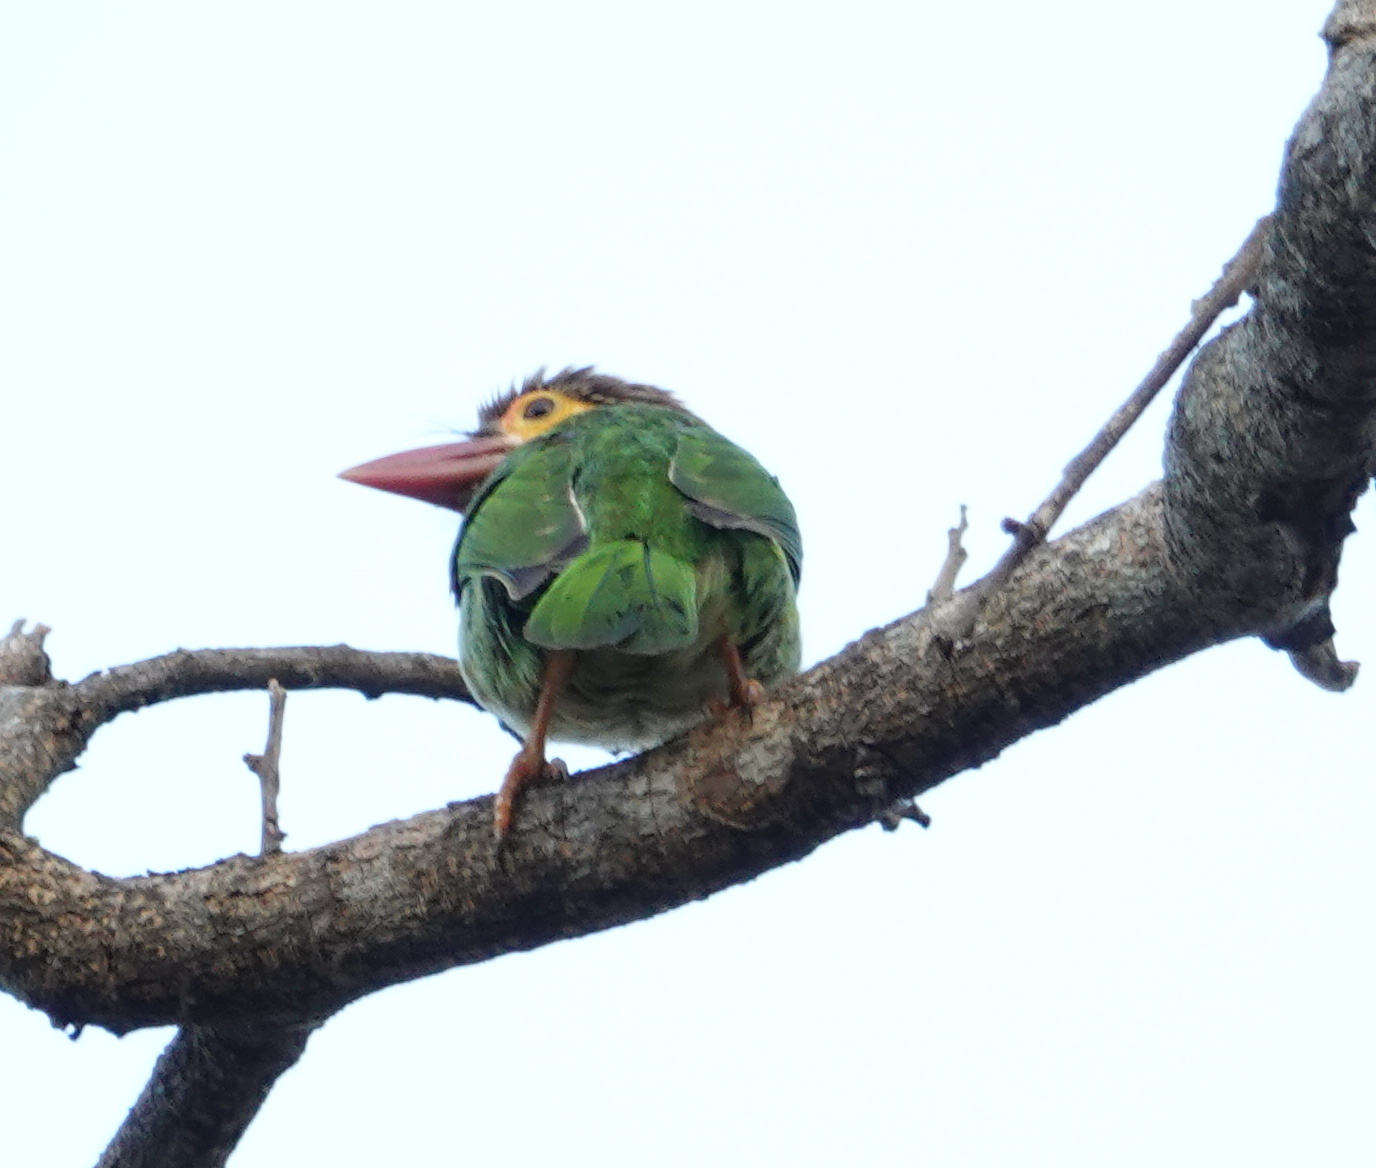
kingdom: Animalia
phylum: Chordata
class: Aves
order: Piciformes
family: Megalaimidae
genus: Psilopogon
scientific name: Psilopogon zeylanicus
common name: Brown-headed barbet
